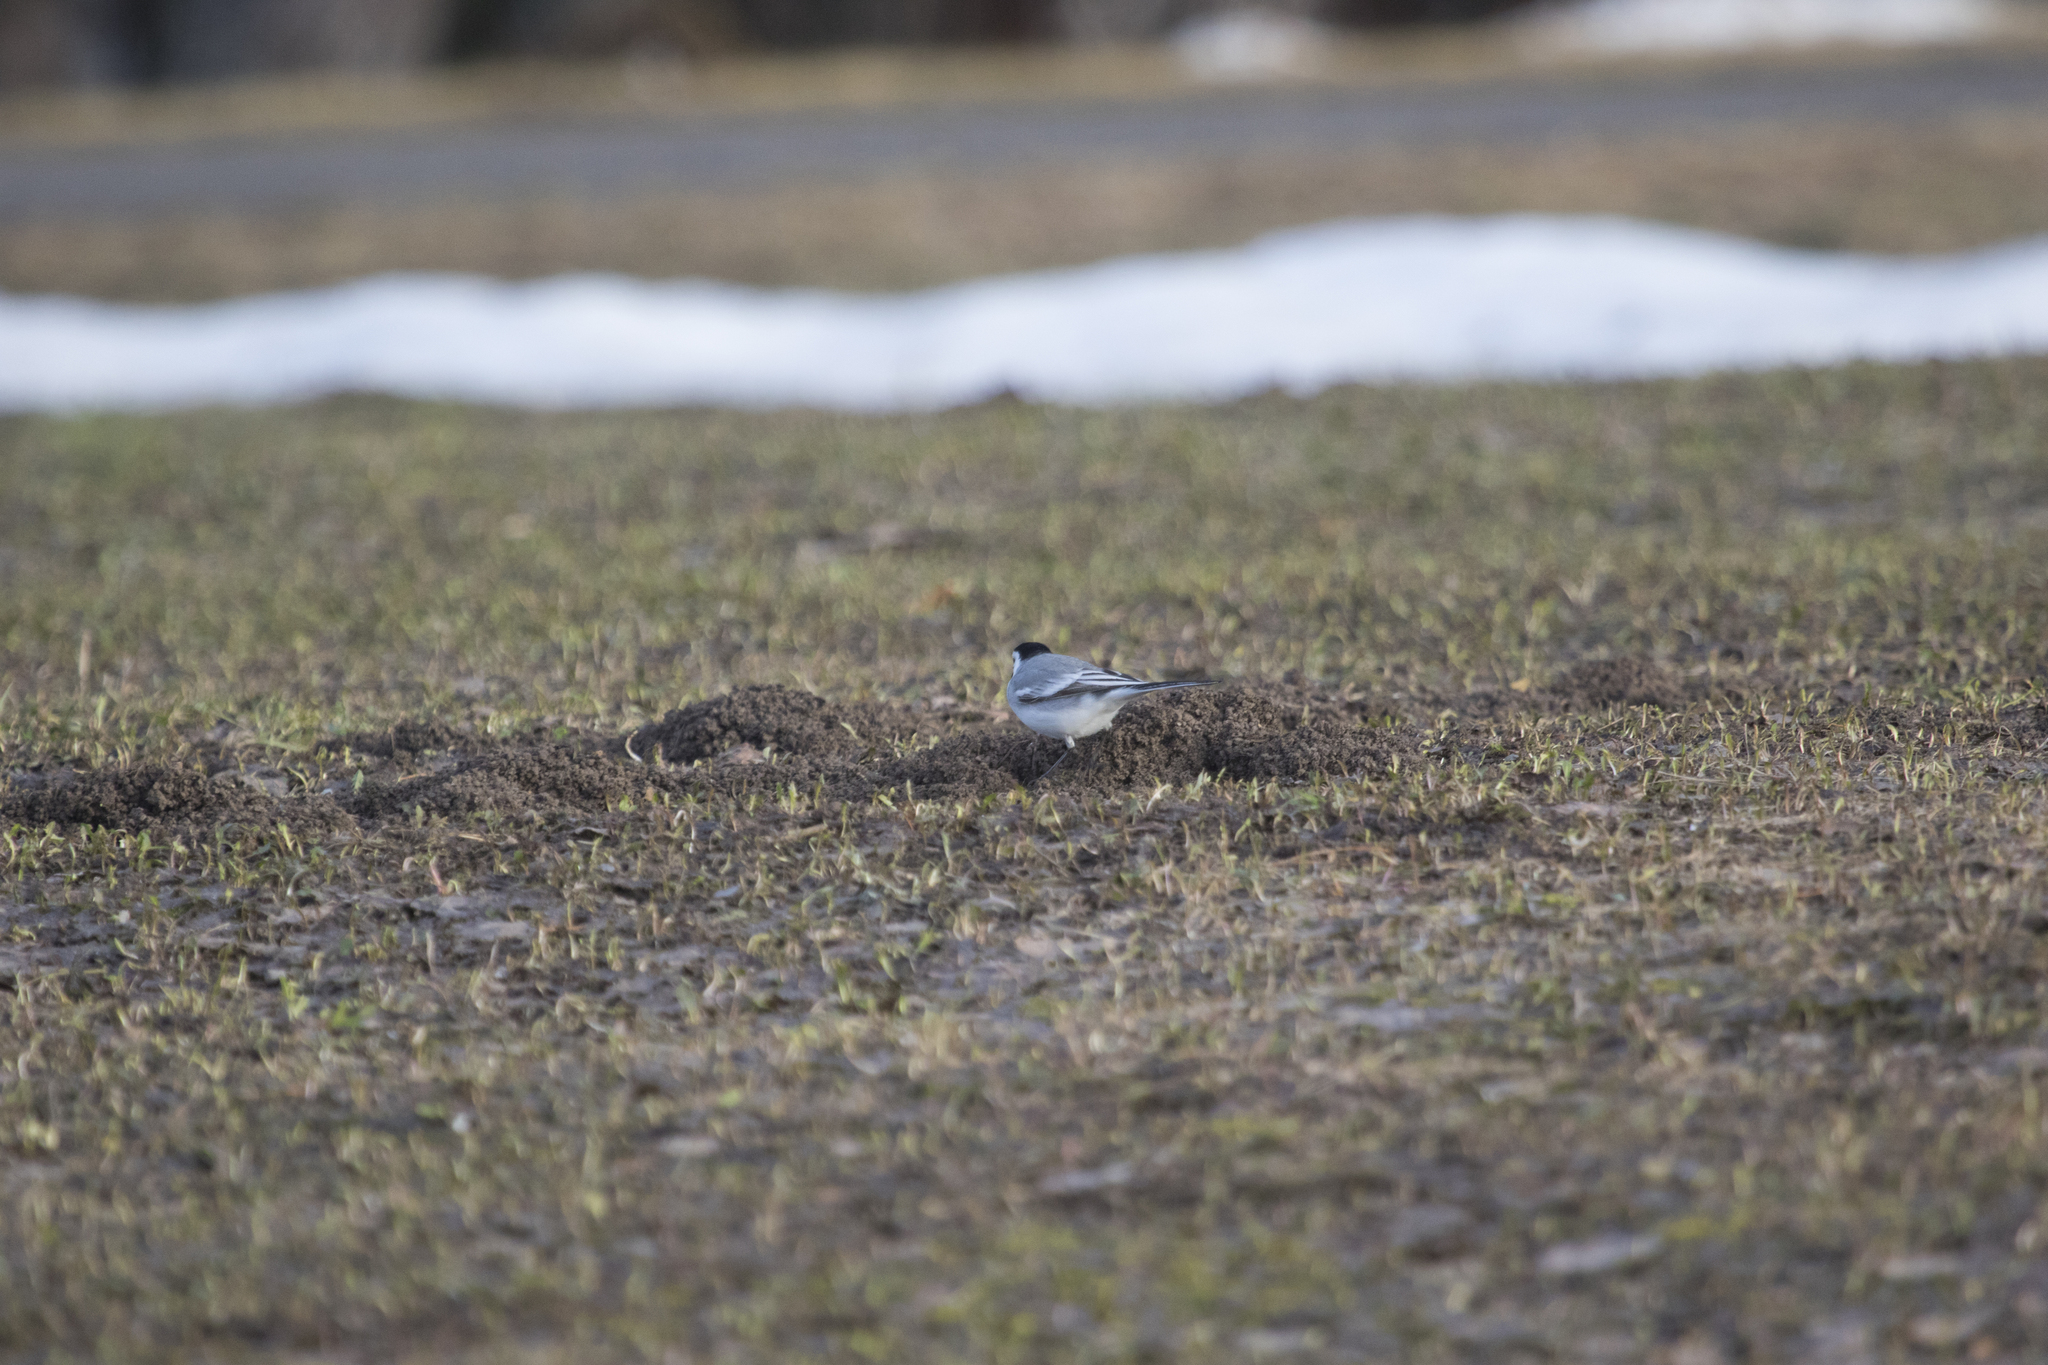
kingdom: Animalia
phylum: Chordata
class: Aves
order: Passeriformes
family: Motacillidae
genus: Motacilla
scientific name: Motacilla alba
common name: White wagtail
